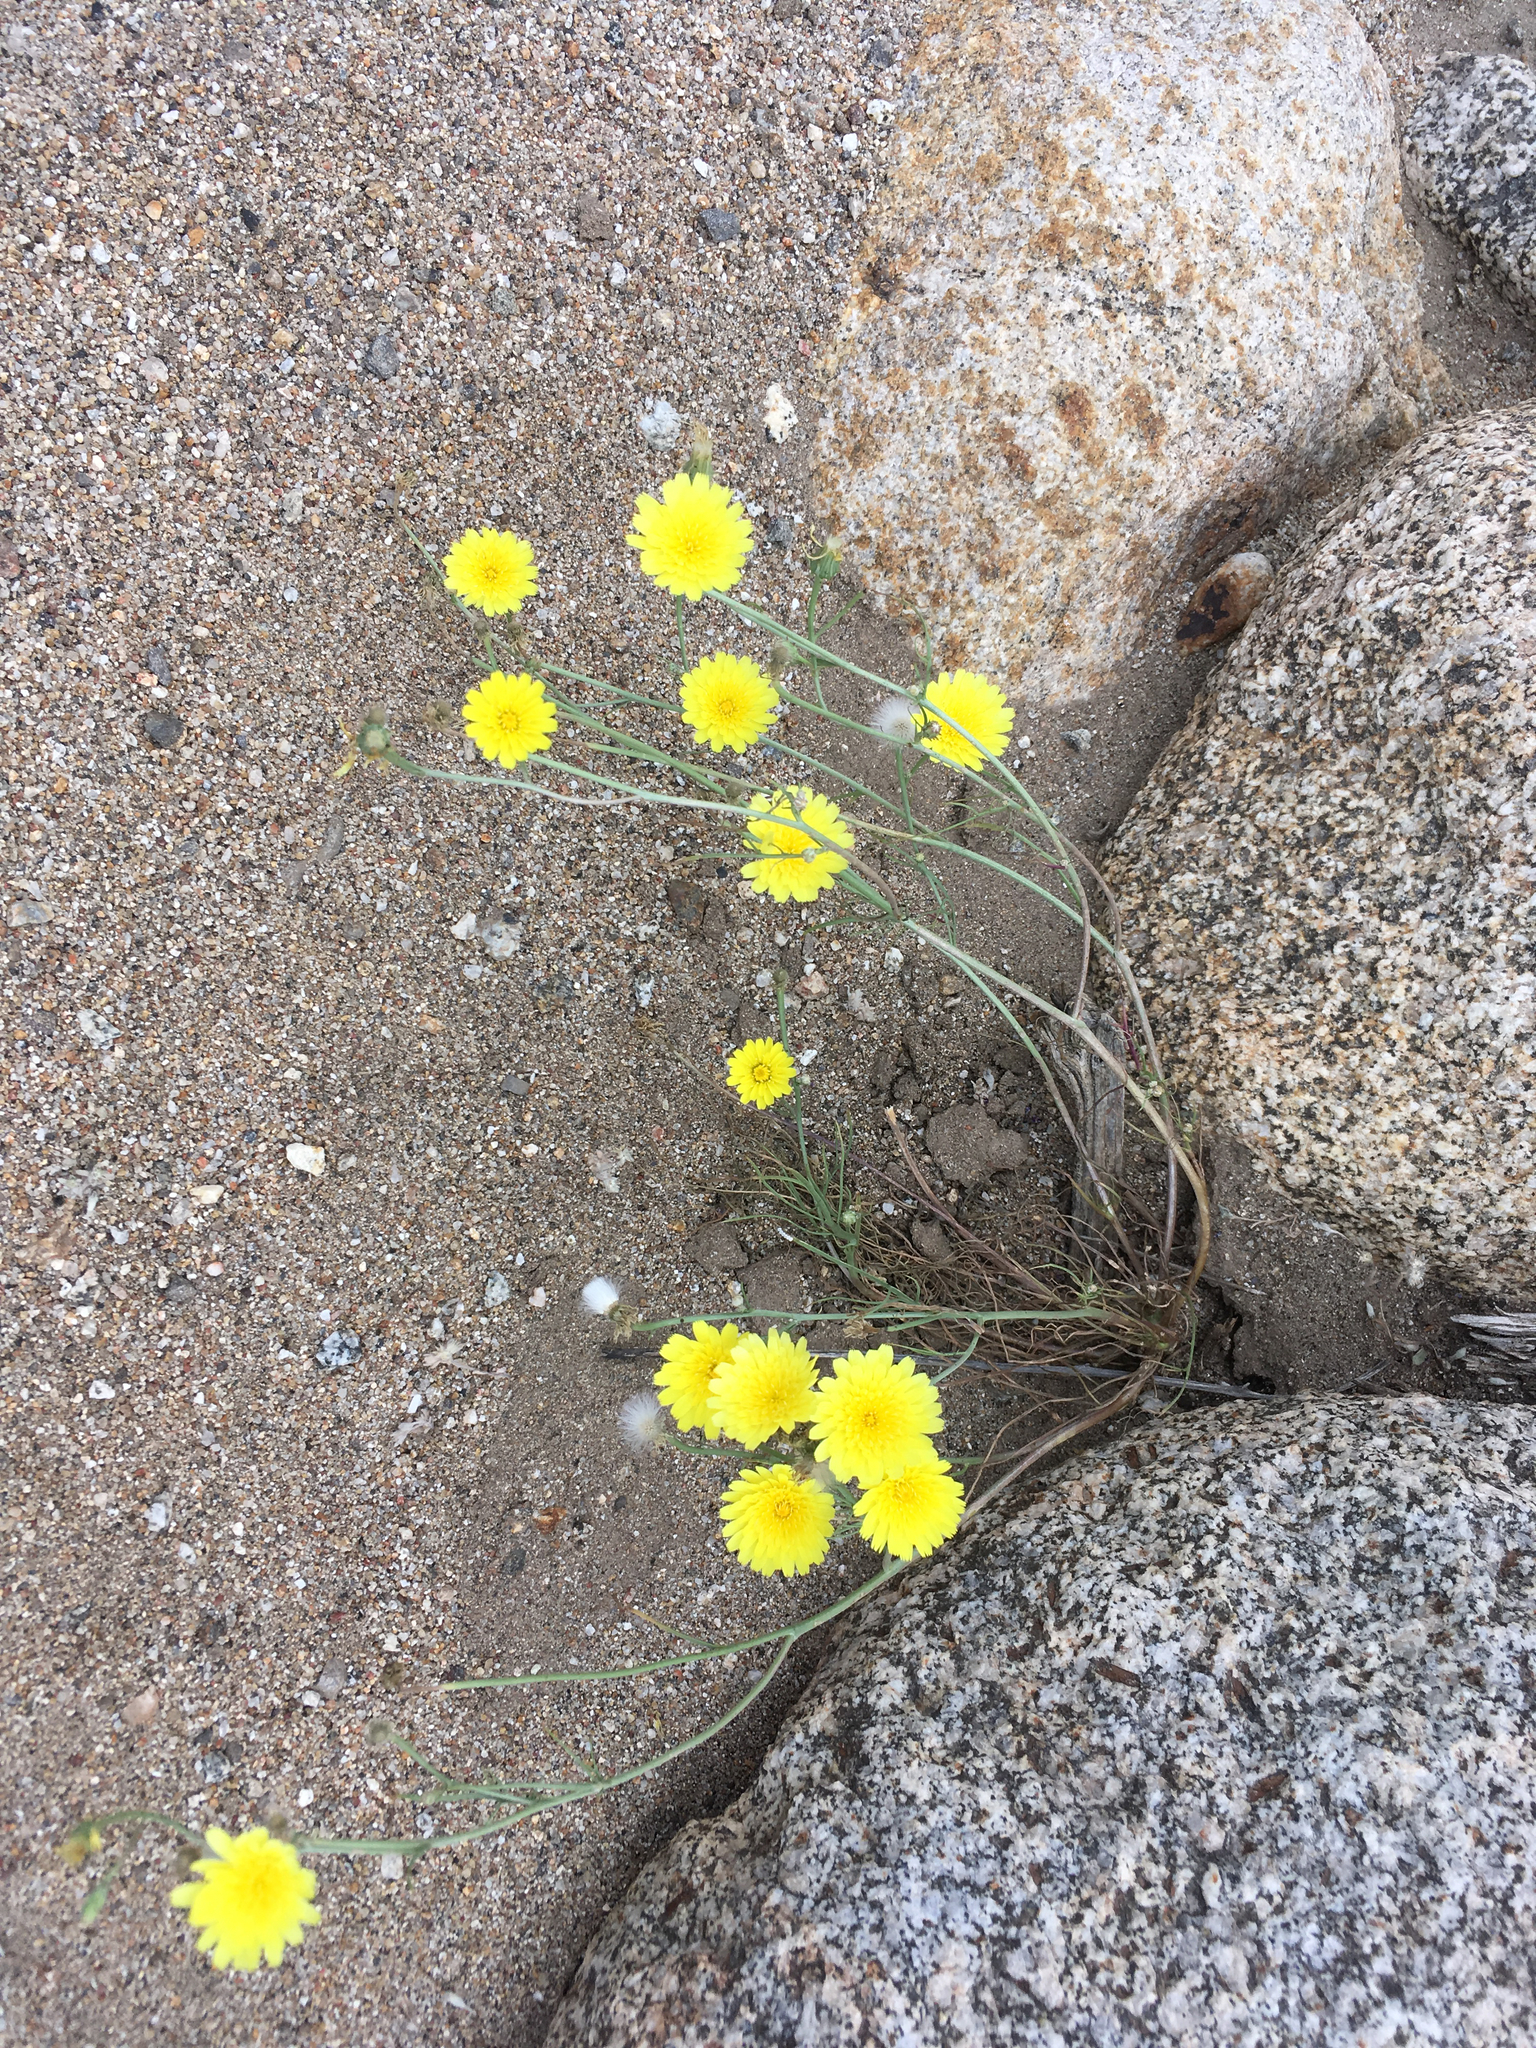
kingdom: Plantae
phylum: Tracheophyta
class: Magnoliopsida
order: Asterales
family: Asteraceae
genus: Malacothrix
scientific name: Malacothrix glabrata
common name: Smooth desert-dandelion
